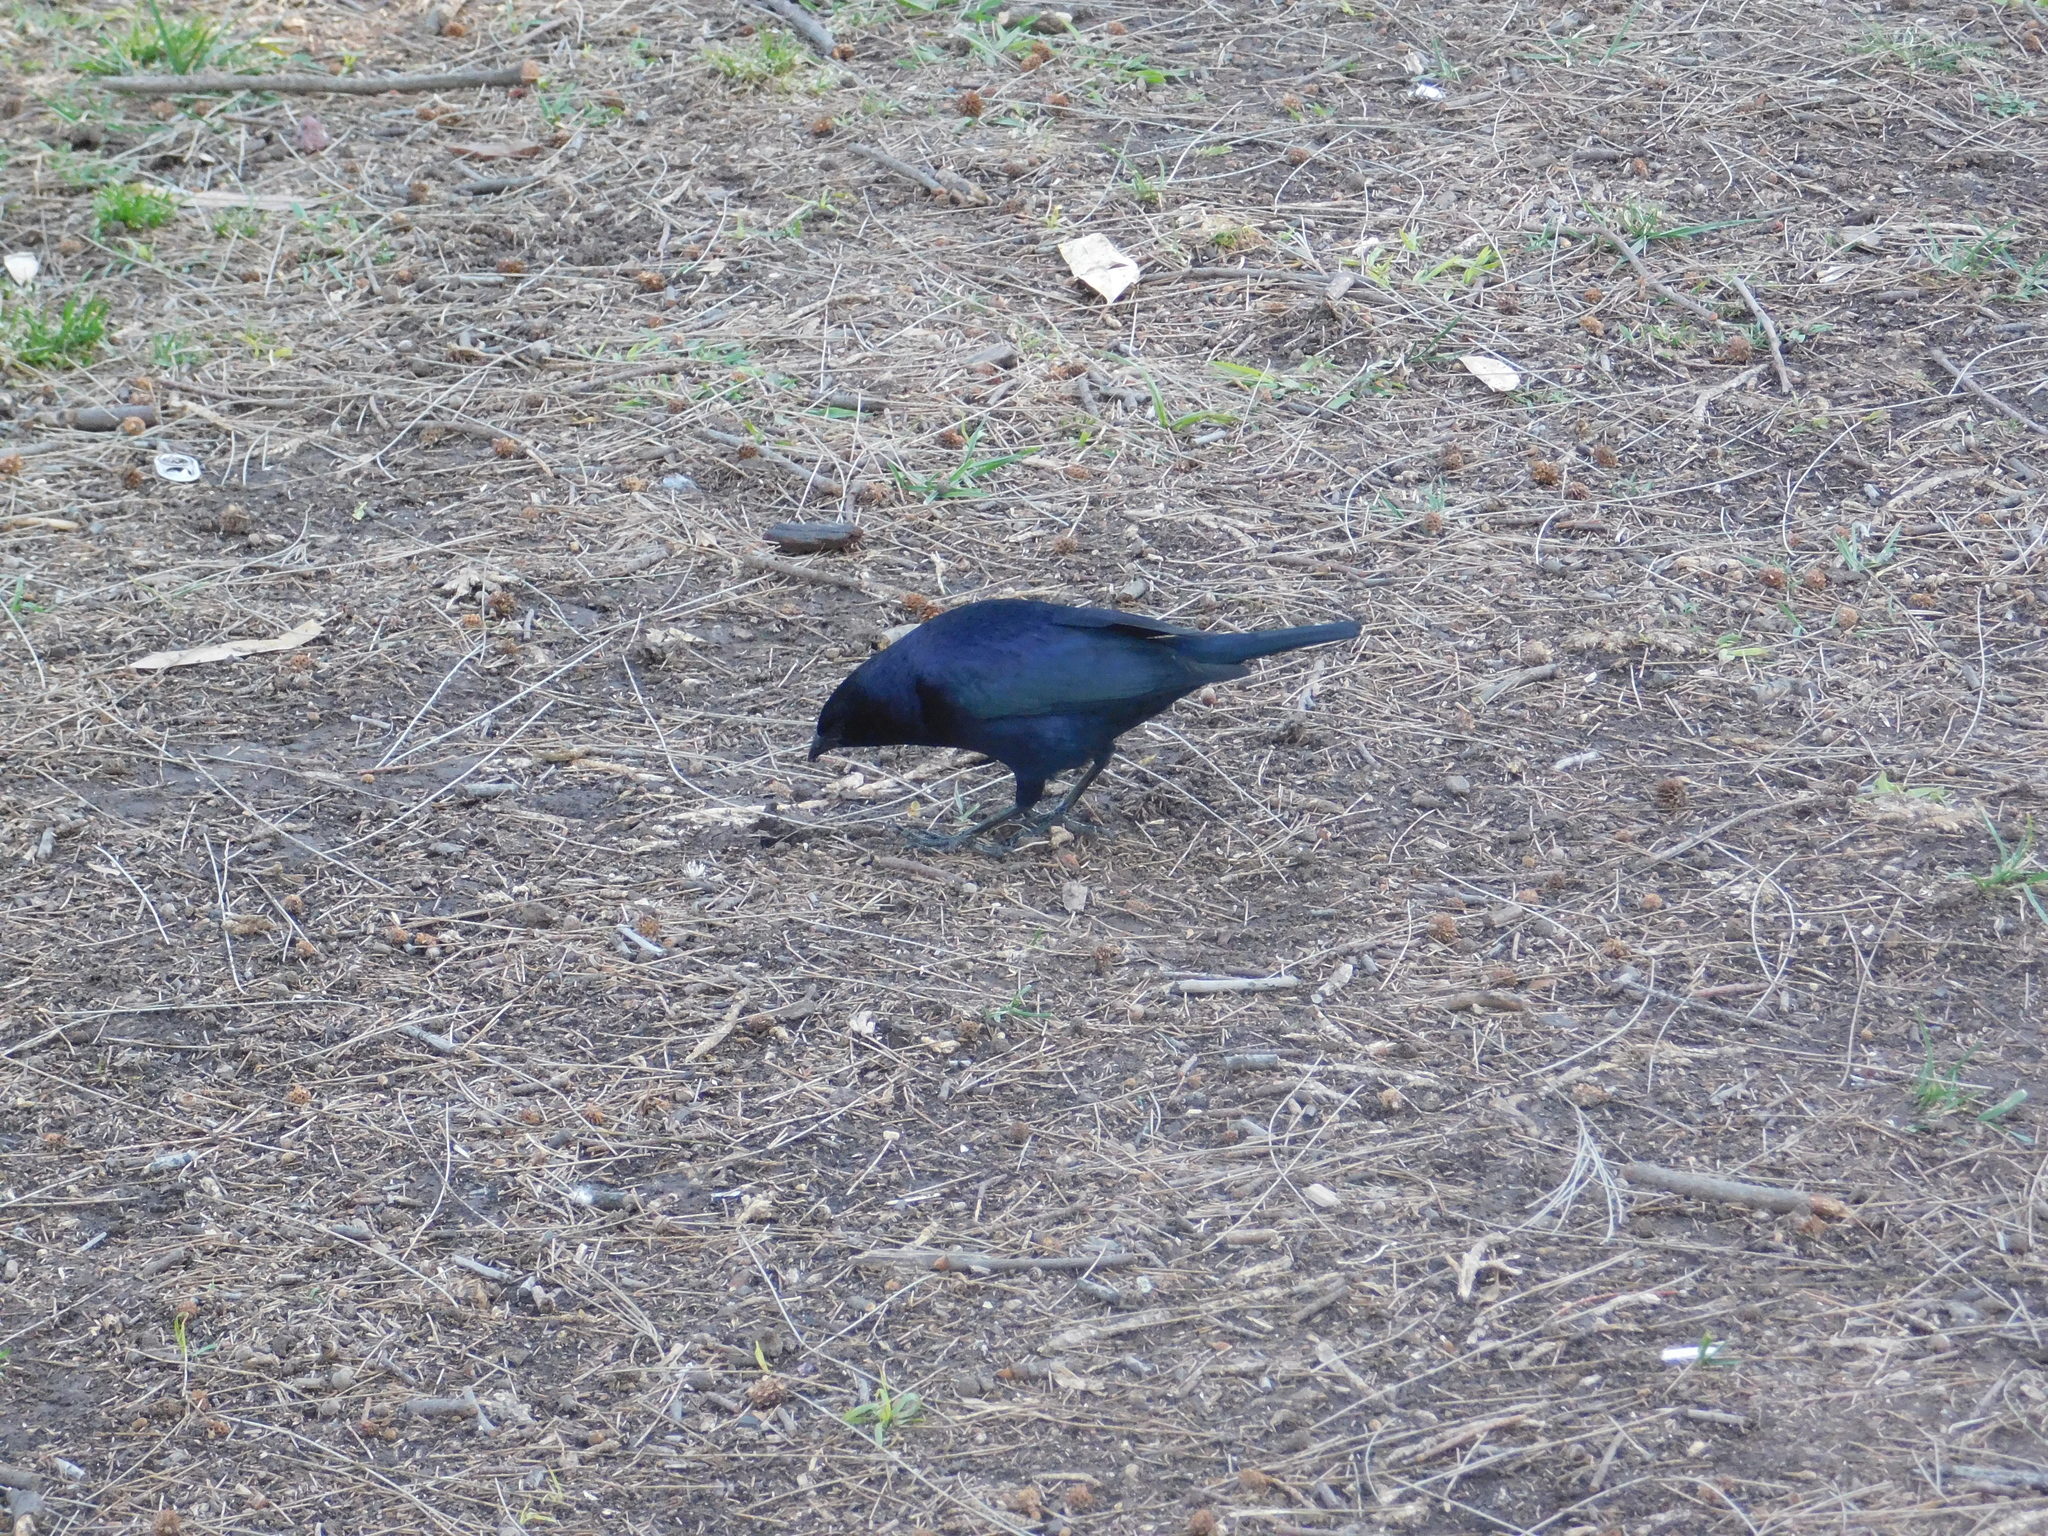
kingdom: Animalia
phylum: Chordata
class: Aves
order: Passeriformes
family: Icteridae
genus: Molothrus
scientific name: Molothrus bonariensis
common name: Shiny cowbird
